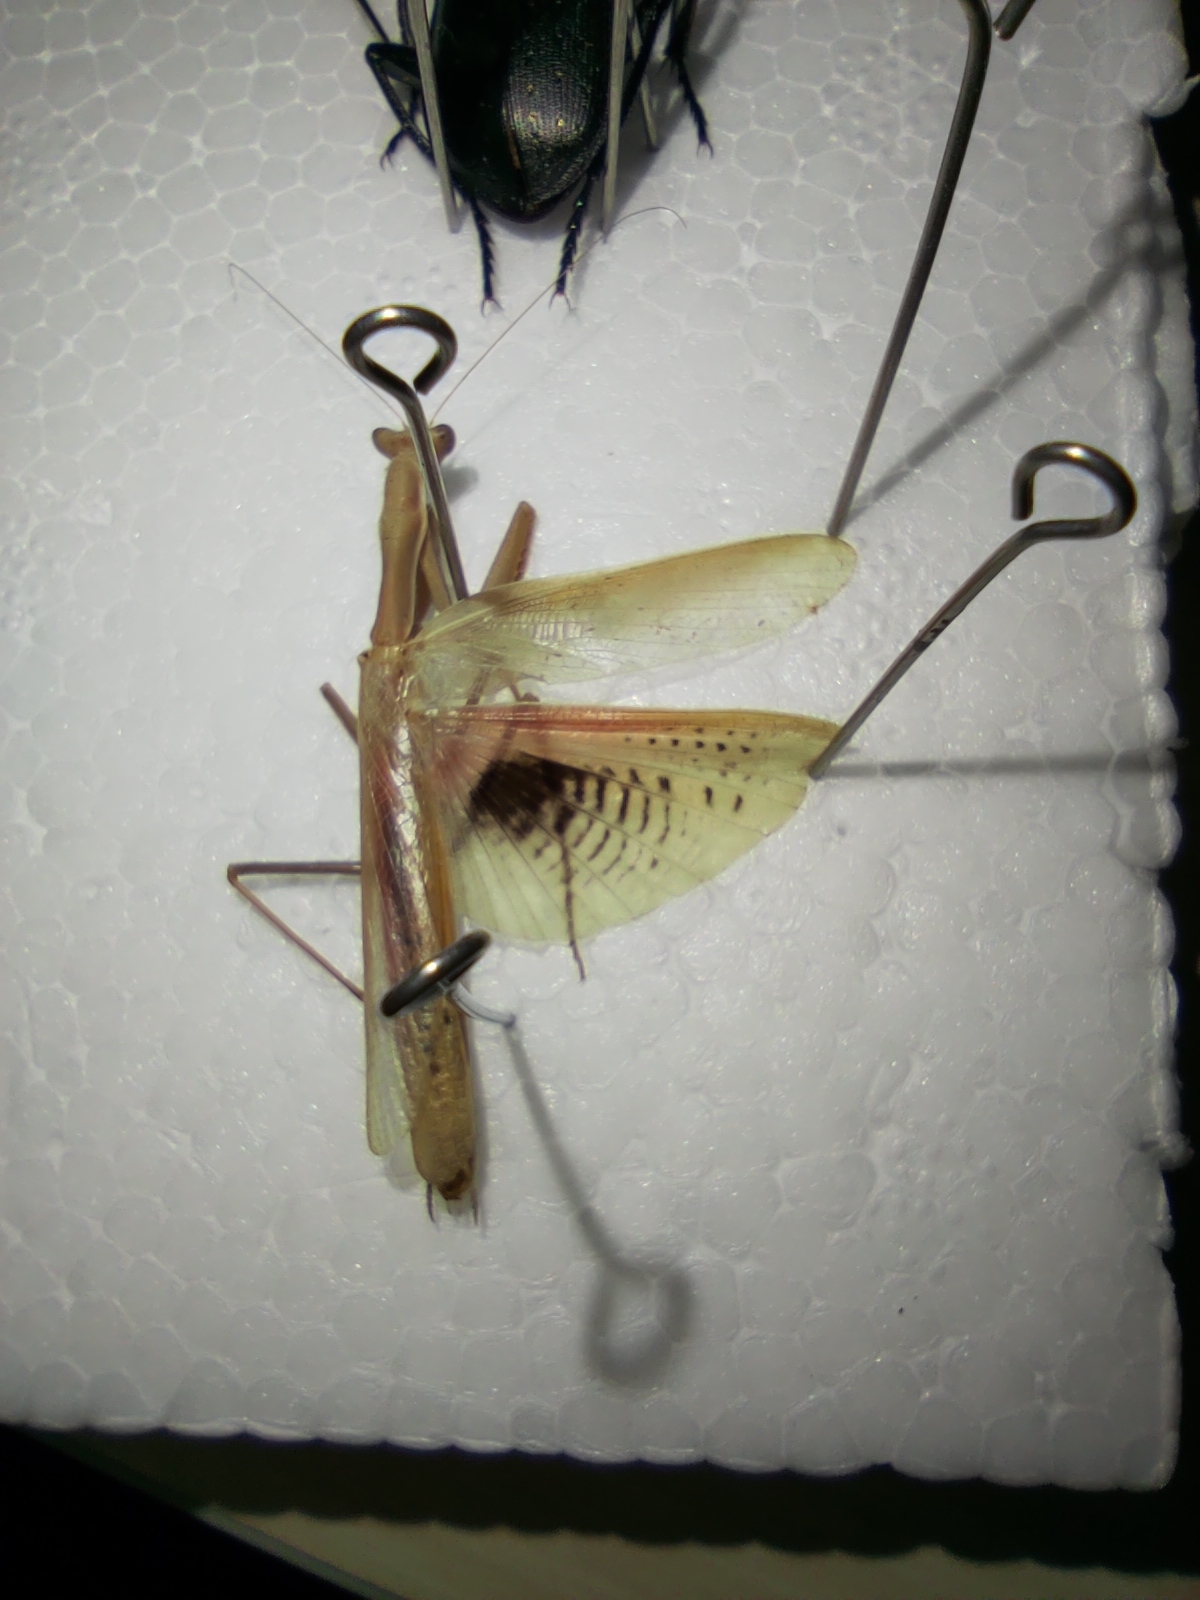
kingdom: Animalia
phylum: Arthropoda
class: Insecta
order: Mantodea
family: Eremiaphilidae
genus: Iris
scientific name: Iris polystictica
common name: Dot-winged mantis
